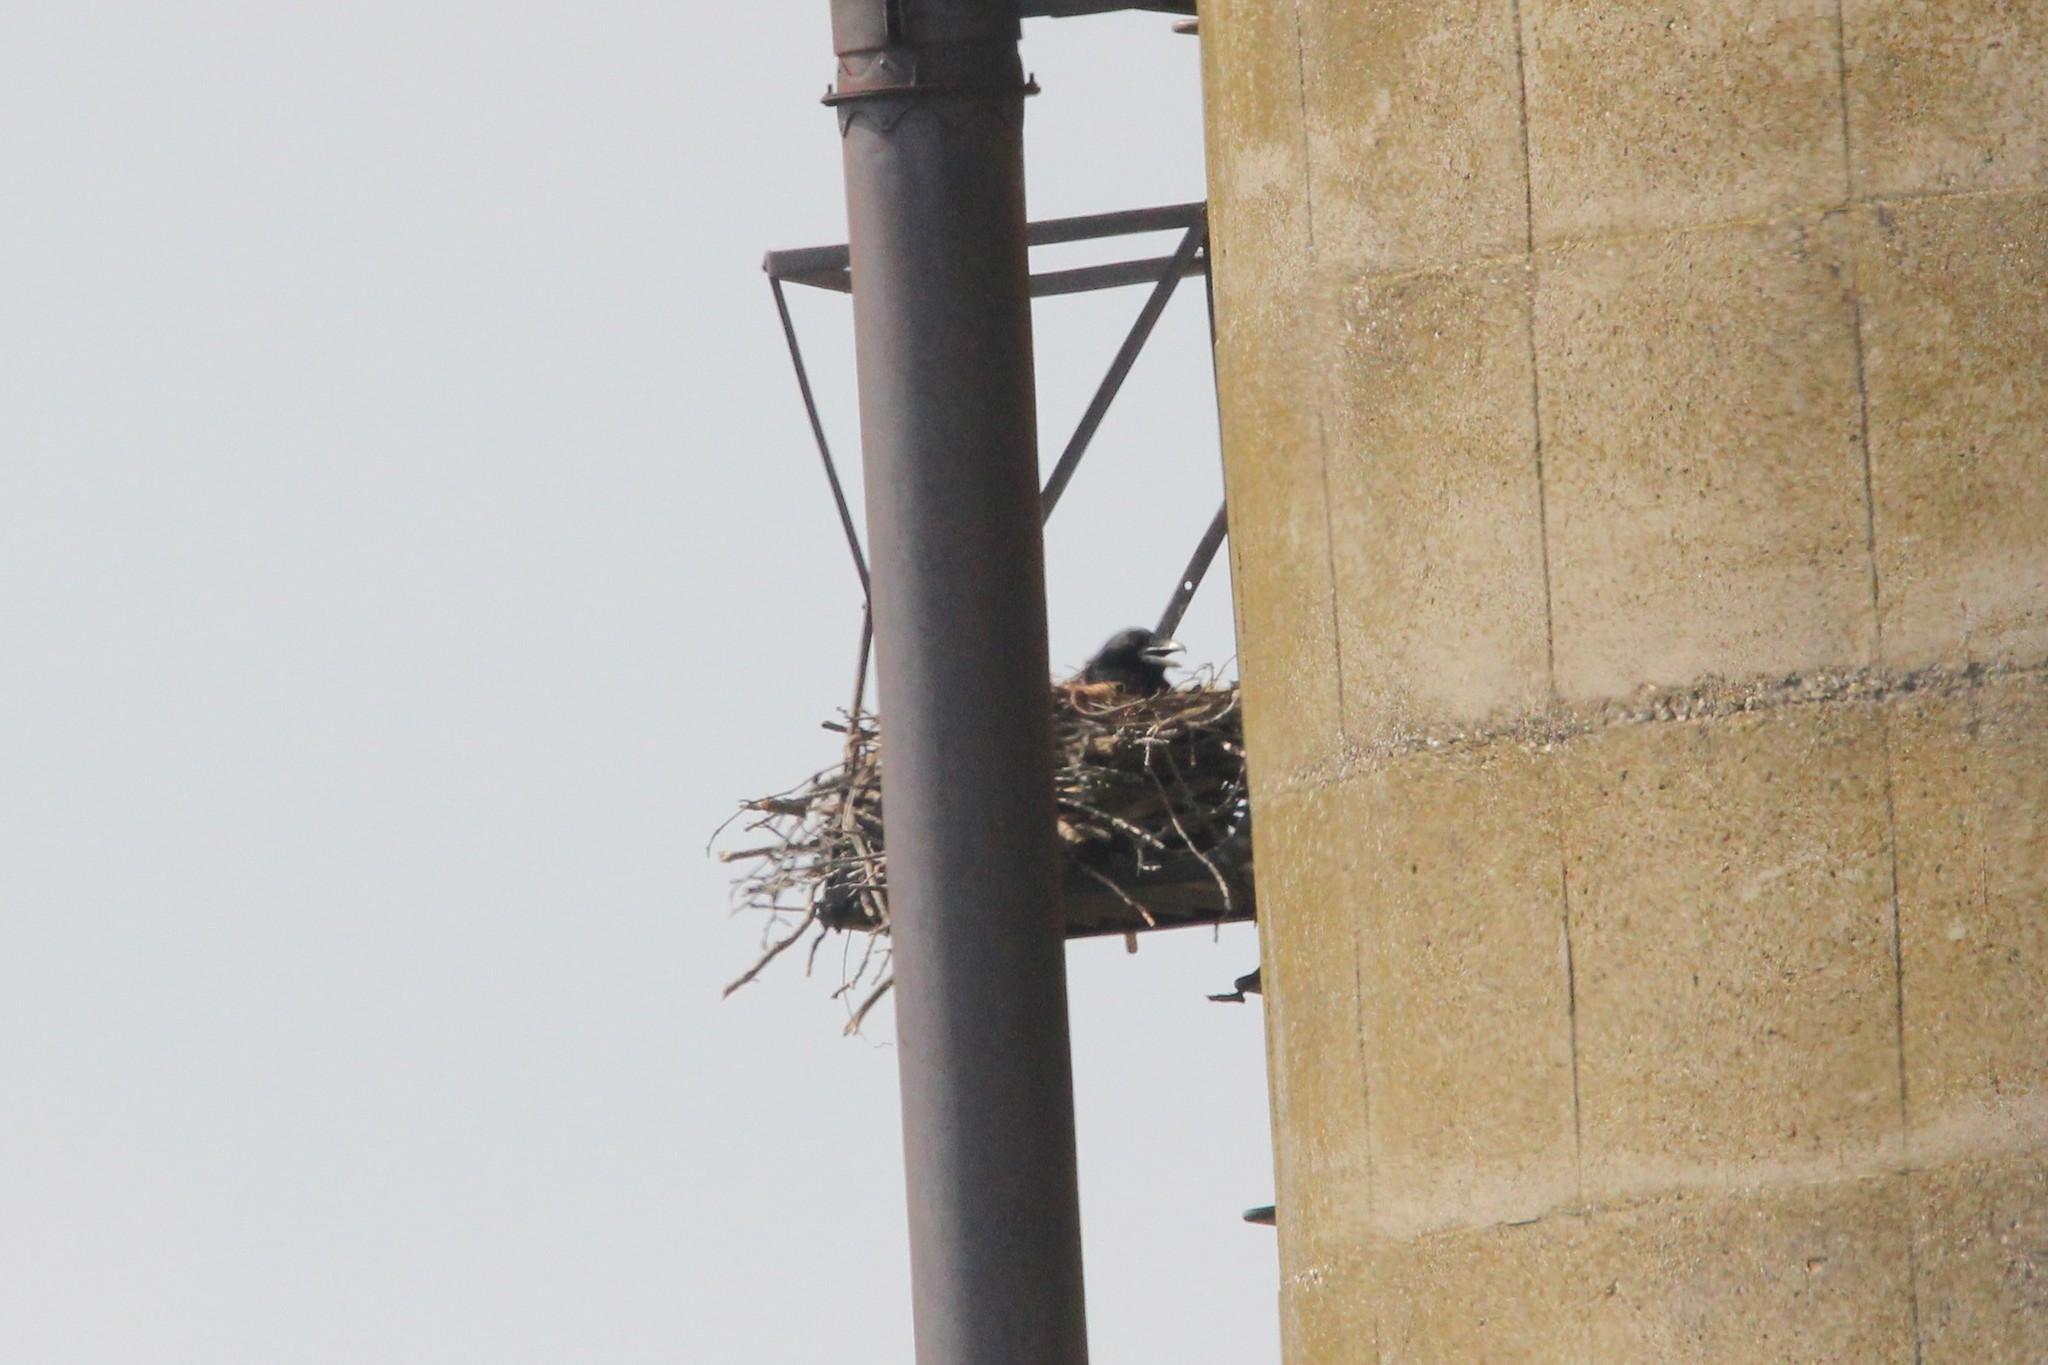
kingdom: Animalia
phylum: Chordata
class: Aves
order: Passeriformes
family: Corvidae
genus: Corvus
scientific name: Corvus corax
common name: Common raven
